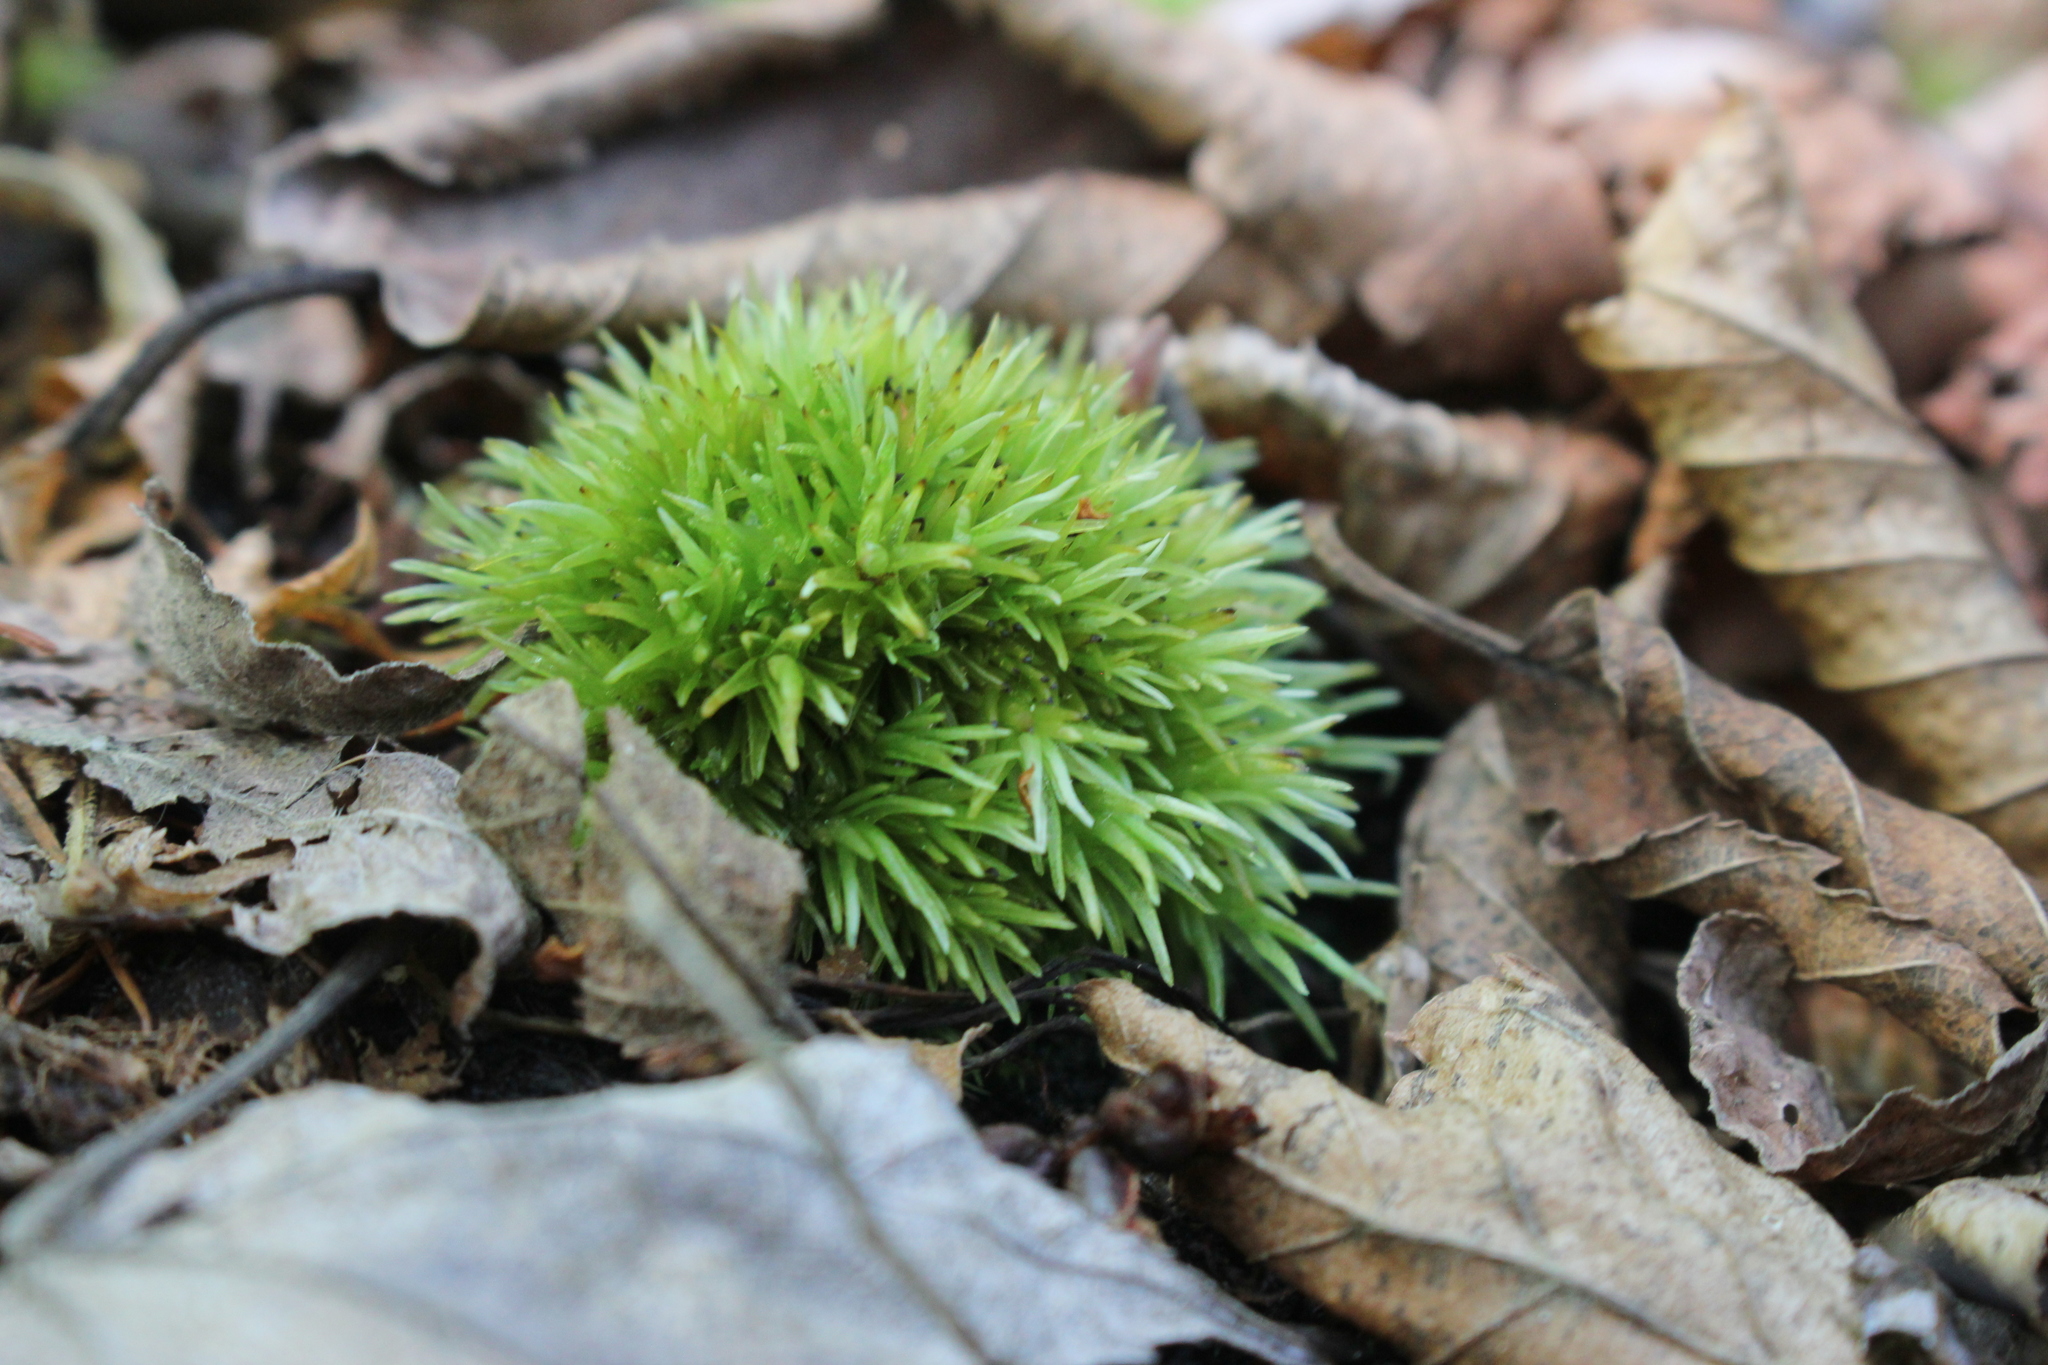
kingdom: Plantae
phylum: Bryophyta
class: Bryopsida
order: Dicranales
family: Leucobryaceae
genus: Leucobryum
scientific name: Leucobryum glaucum
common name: Large white-moss
